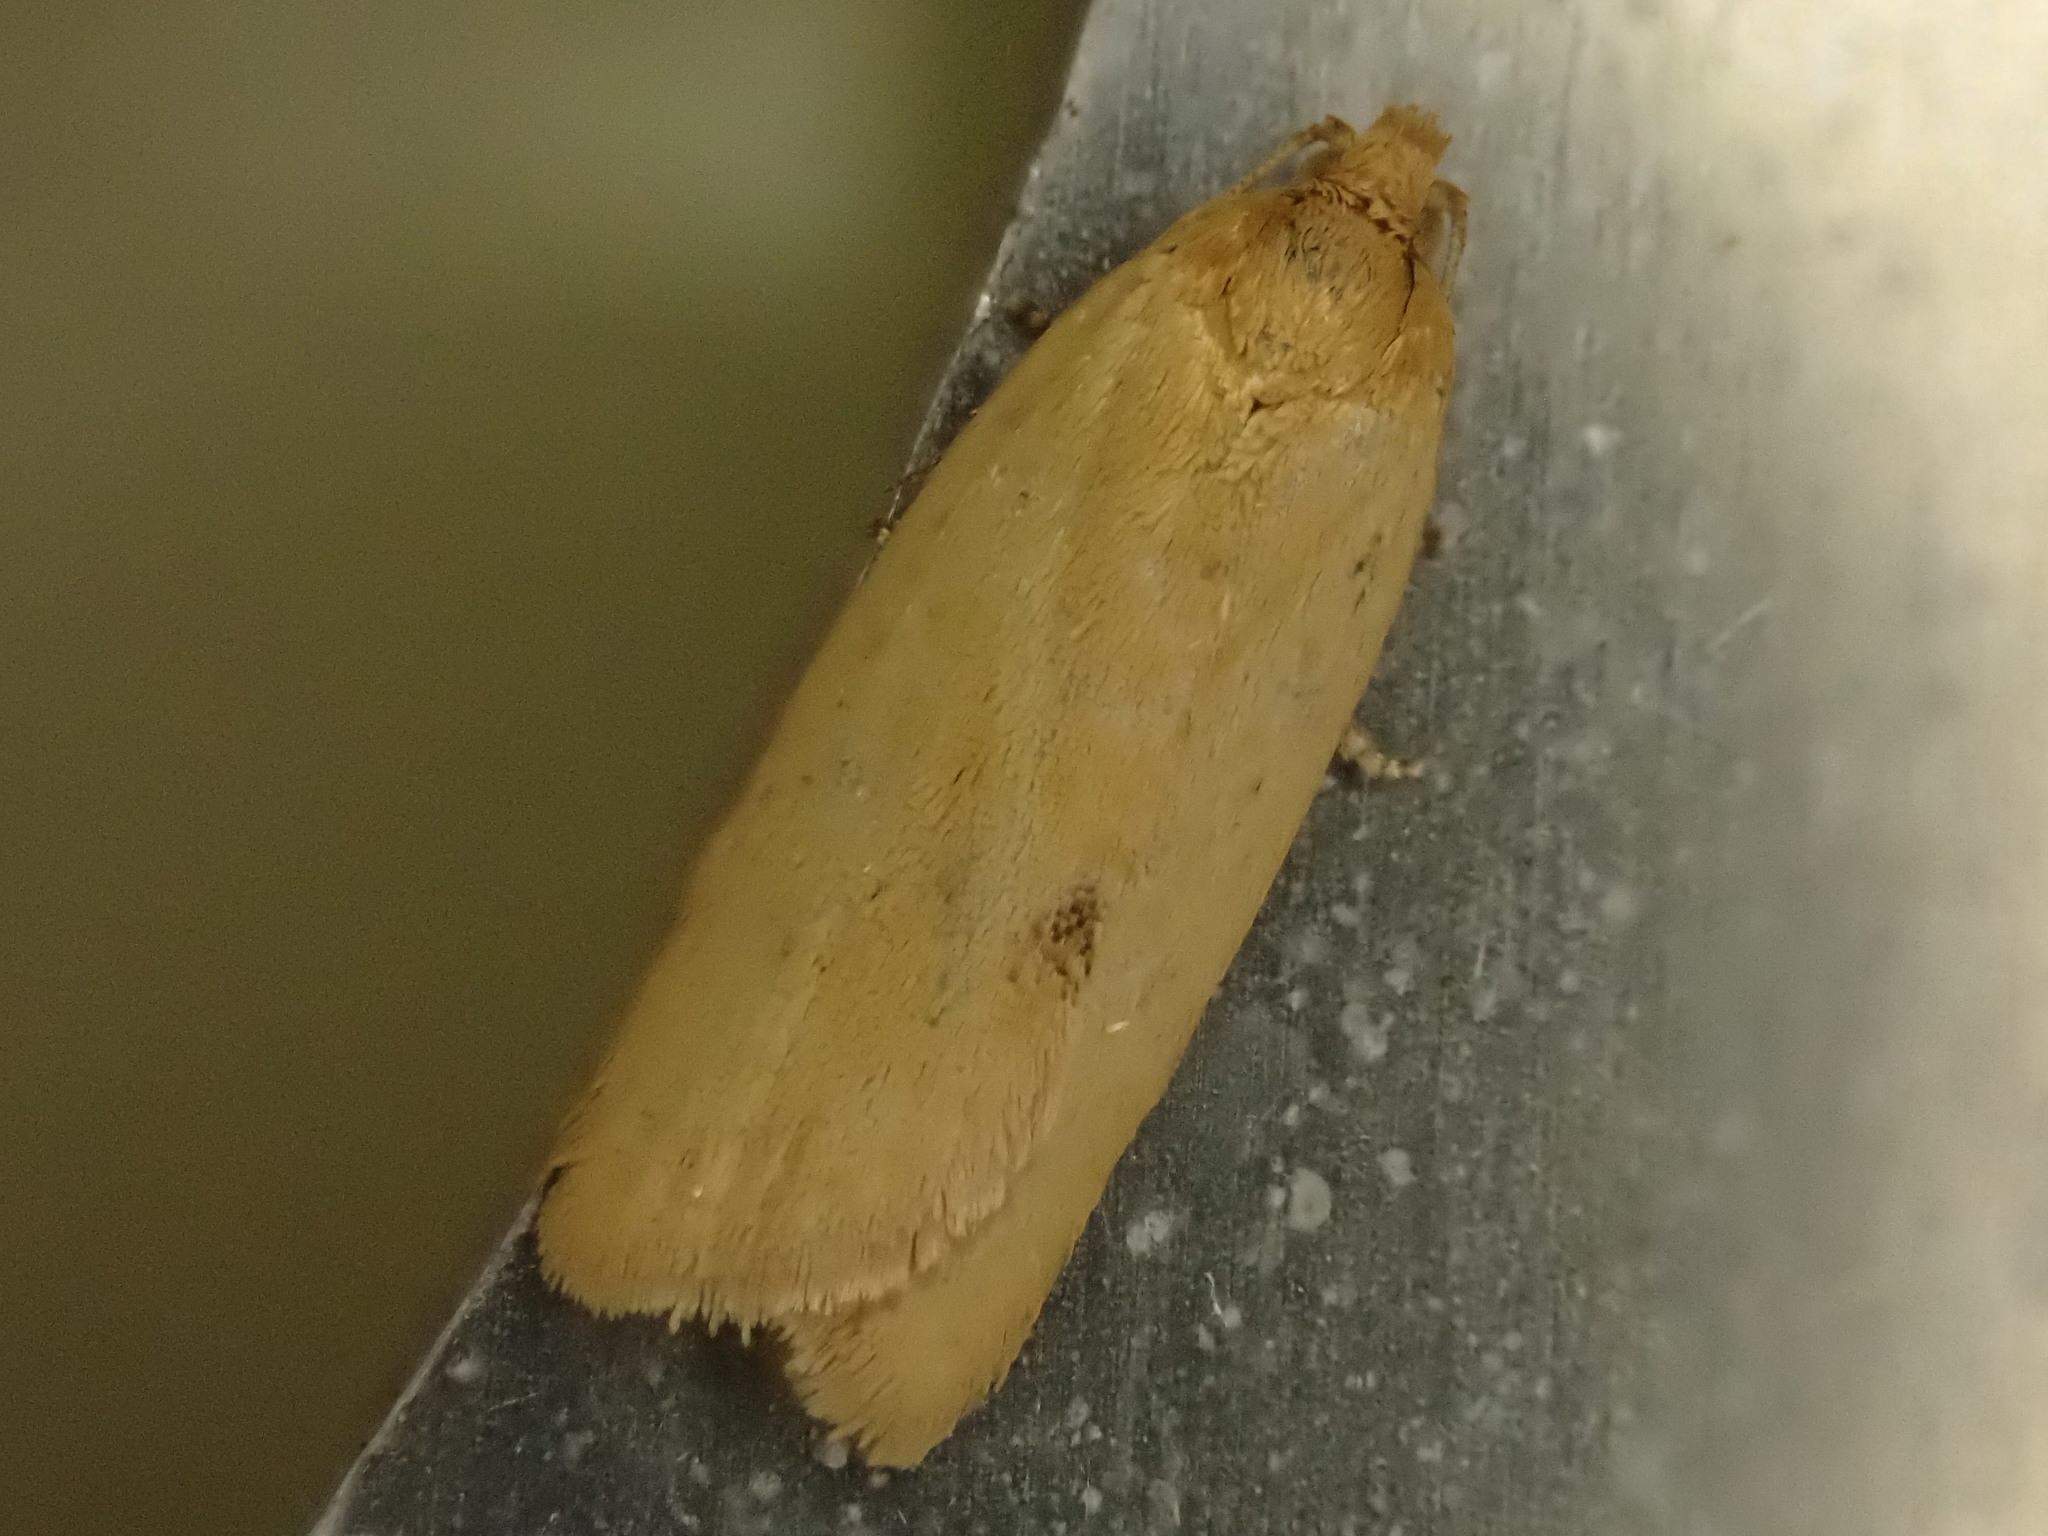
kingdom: Animalia
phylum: Arthropoda
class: Insecta
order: Lepidoptera
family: Tortricidae
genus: Clepsis
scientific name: Clepsis
